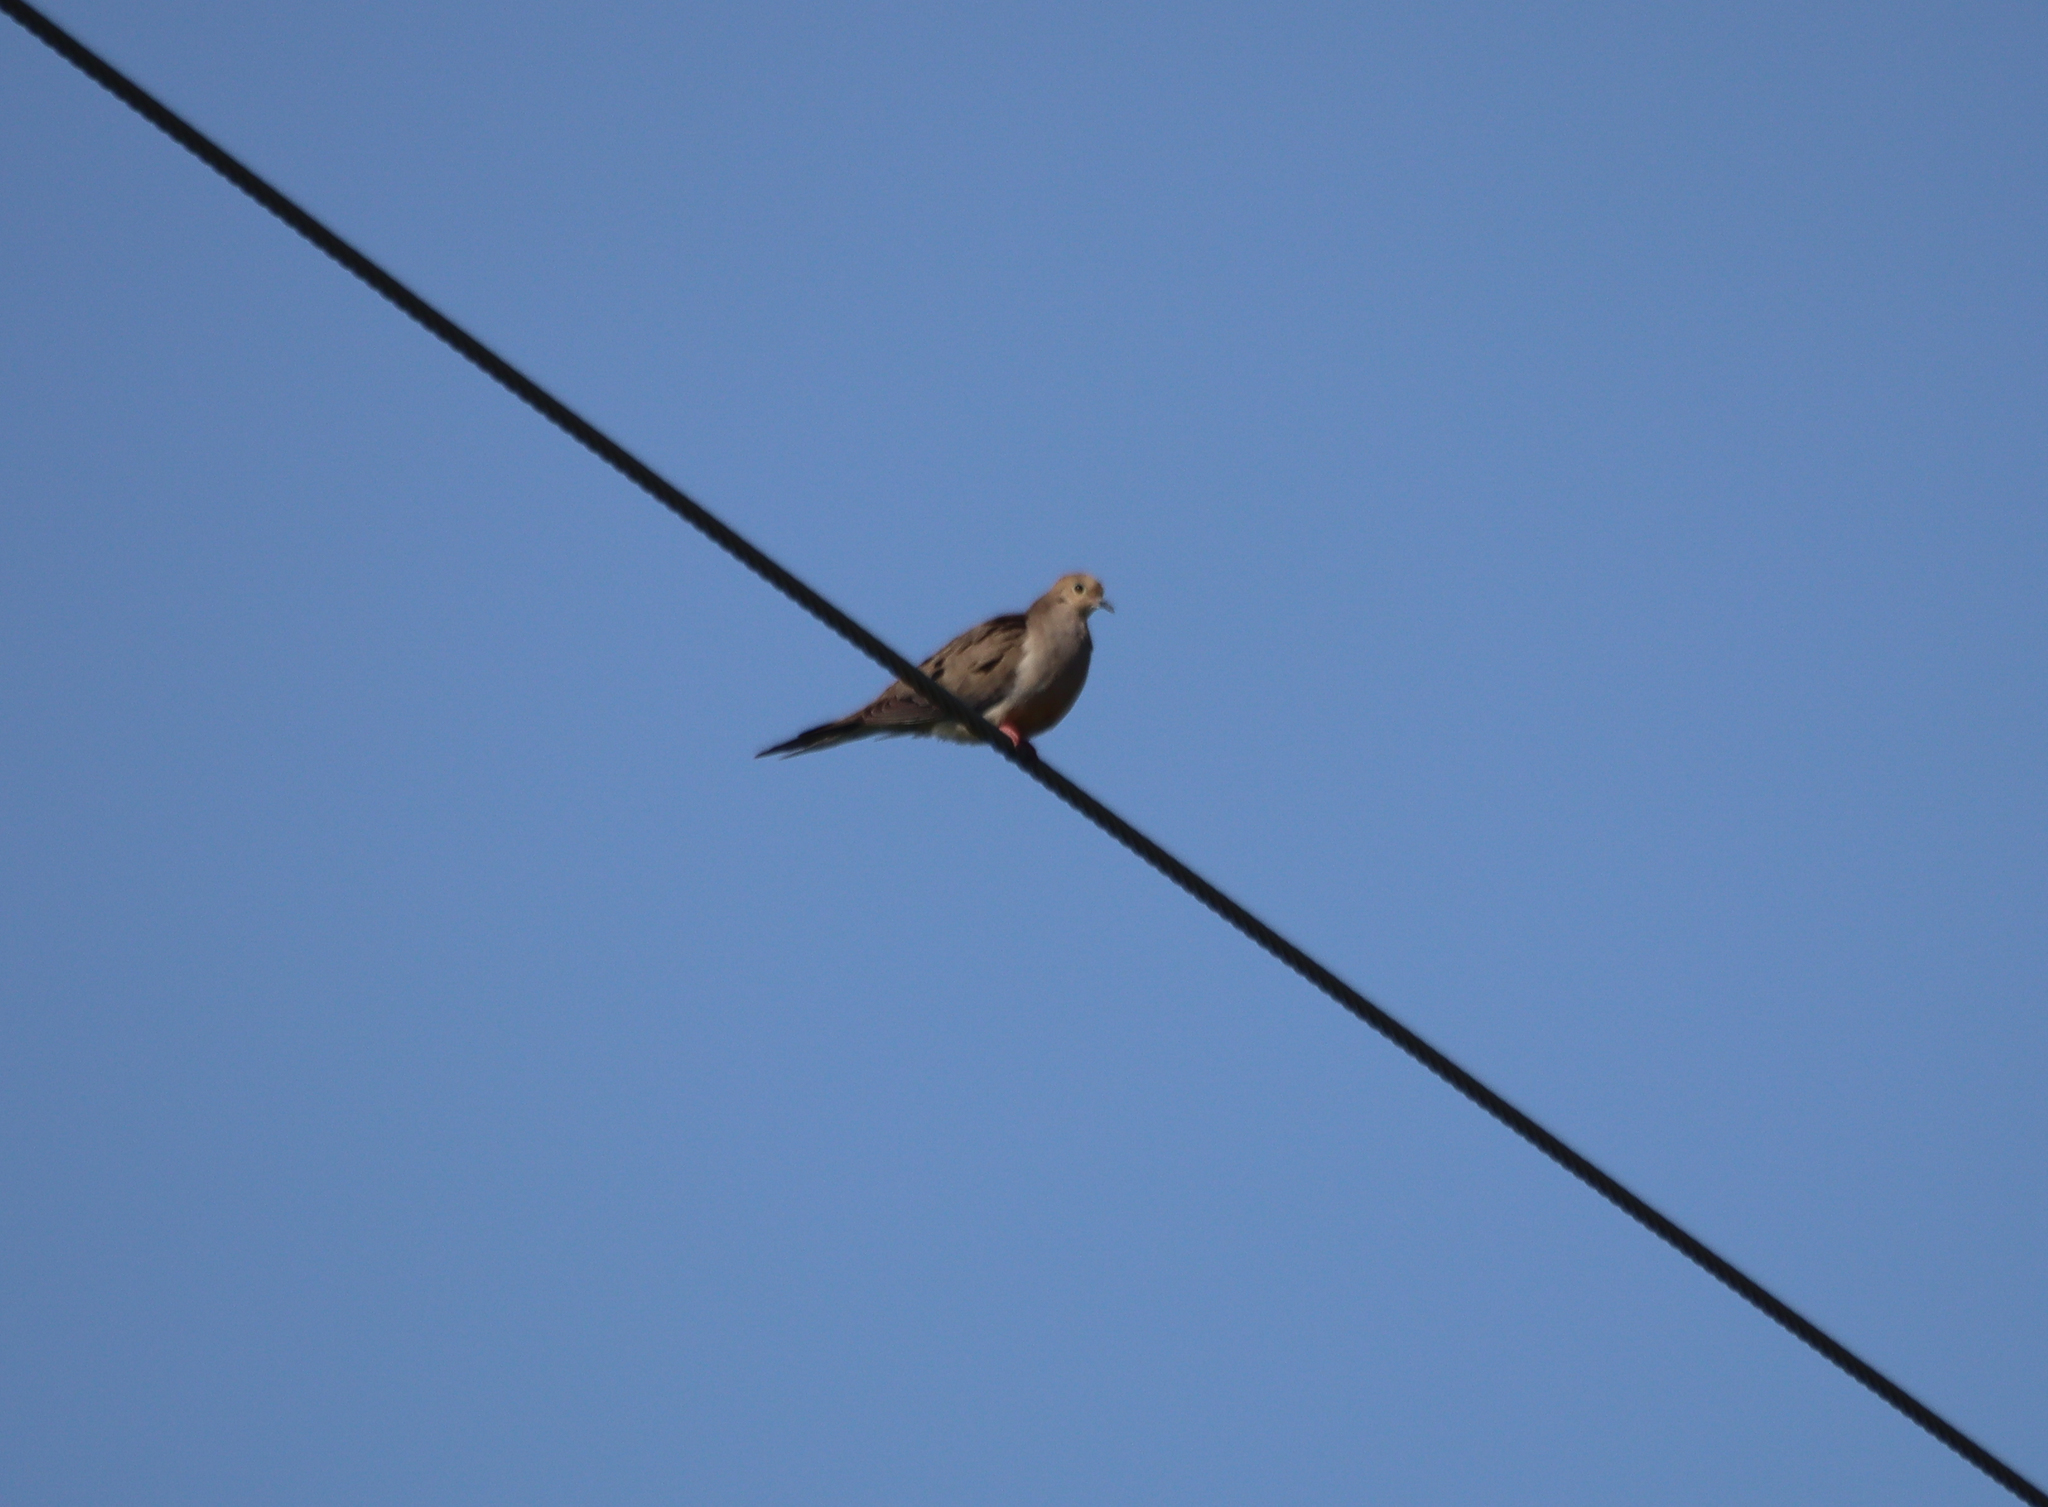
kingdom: Animalia
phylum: Chordata
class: Aves
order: Columbiformes
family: Columbidae
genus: Zenaida
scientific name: Zenaida macroura
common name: Mourning dove
